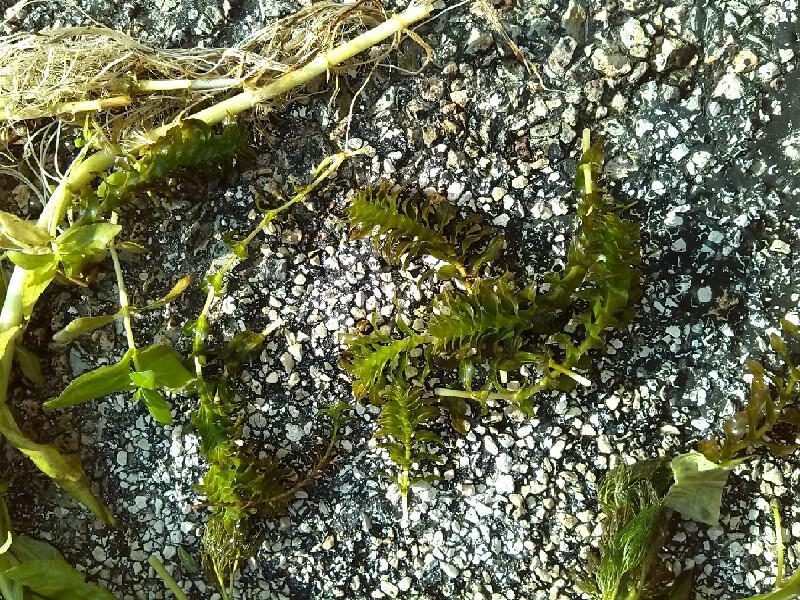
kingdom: Plantae
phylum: Tracheophyta
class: Liliopsida
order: Alismatales
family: Potamogetonaceae
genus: Groenlandia
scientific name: Groenlandia densa
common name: Opposite-leaved pondweed
